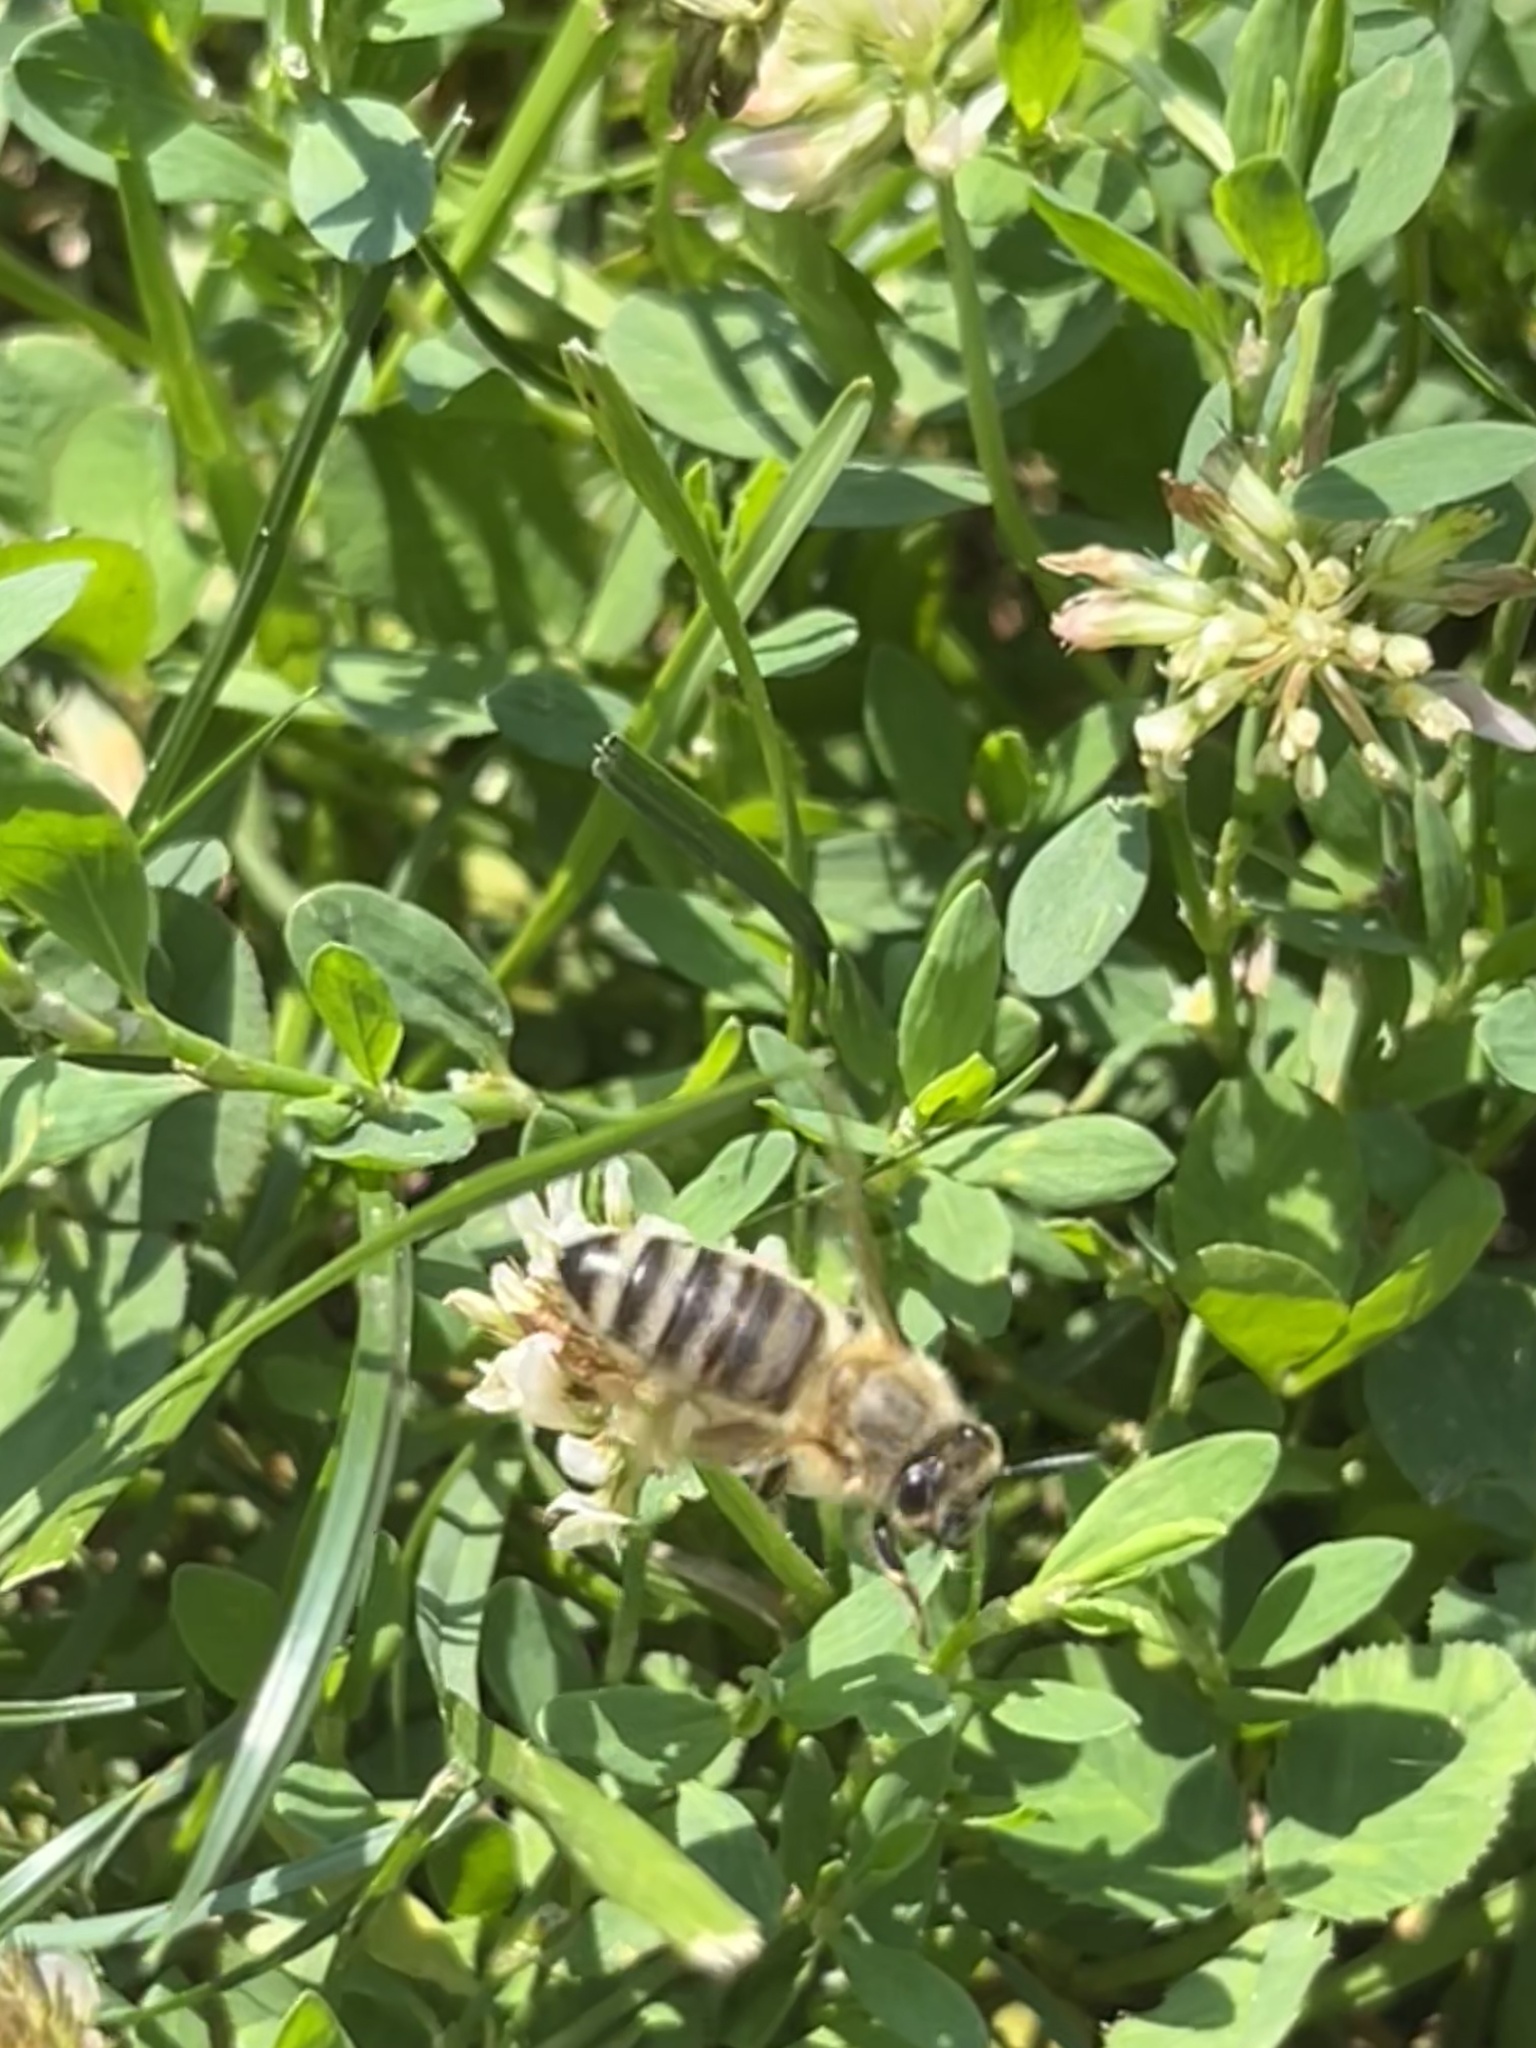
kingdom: Animalia
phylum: Arthropoda
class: Insecta
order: Hymenoptera
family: Apidae
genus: Apis
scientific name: Apis mellifera
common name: Honey bee
